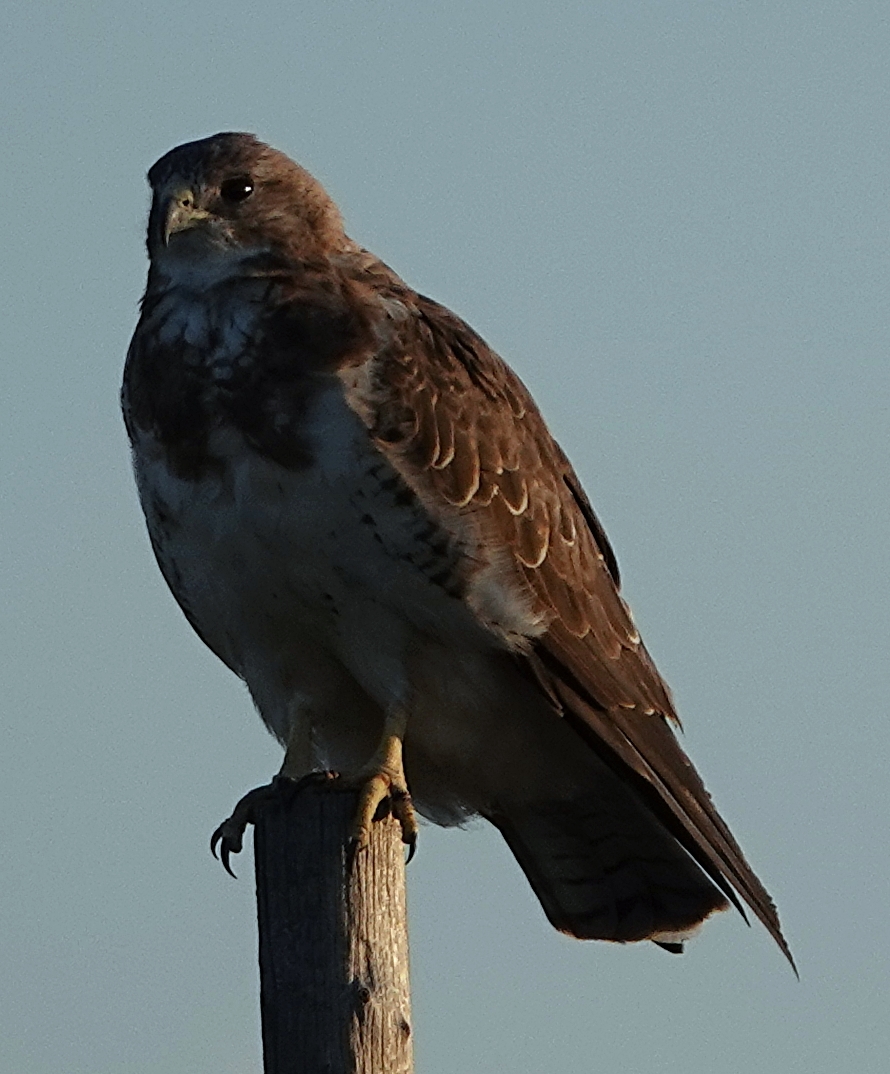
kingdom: Animalia
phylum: Chordata
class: Aves
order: Accipitriformes
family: Accipitridae
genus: Buteo
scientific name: Buteo swainsoni
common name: Swainson's hawk
